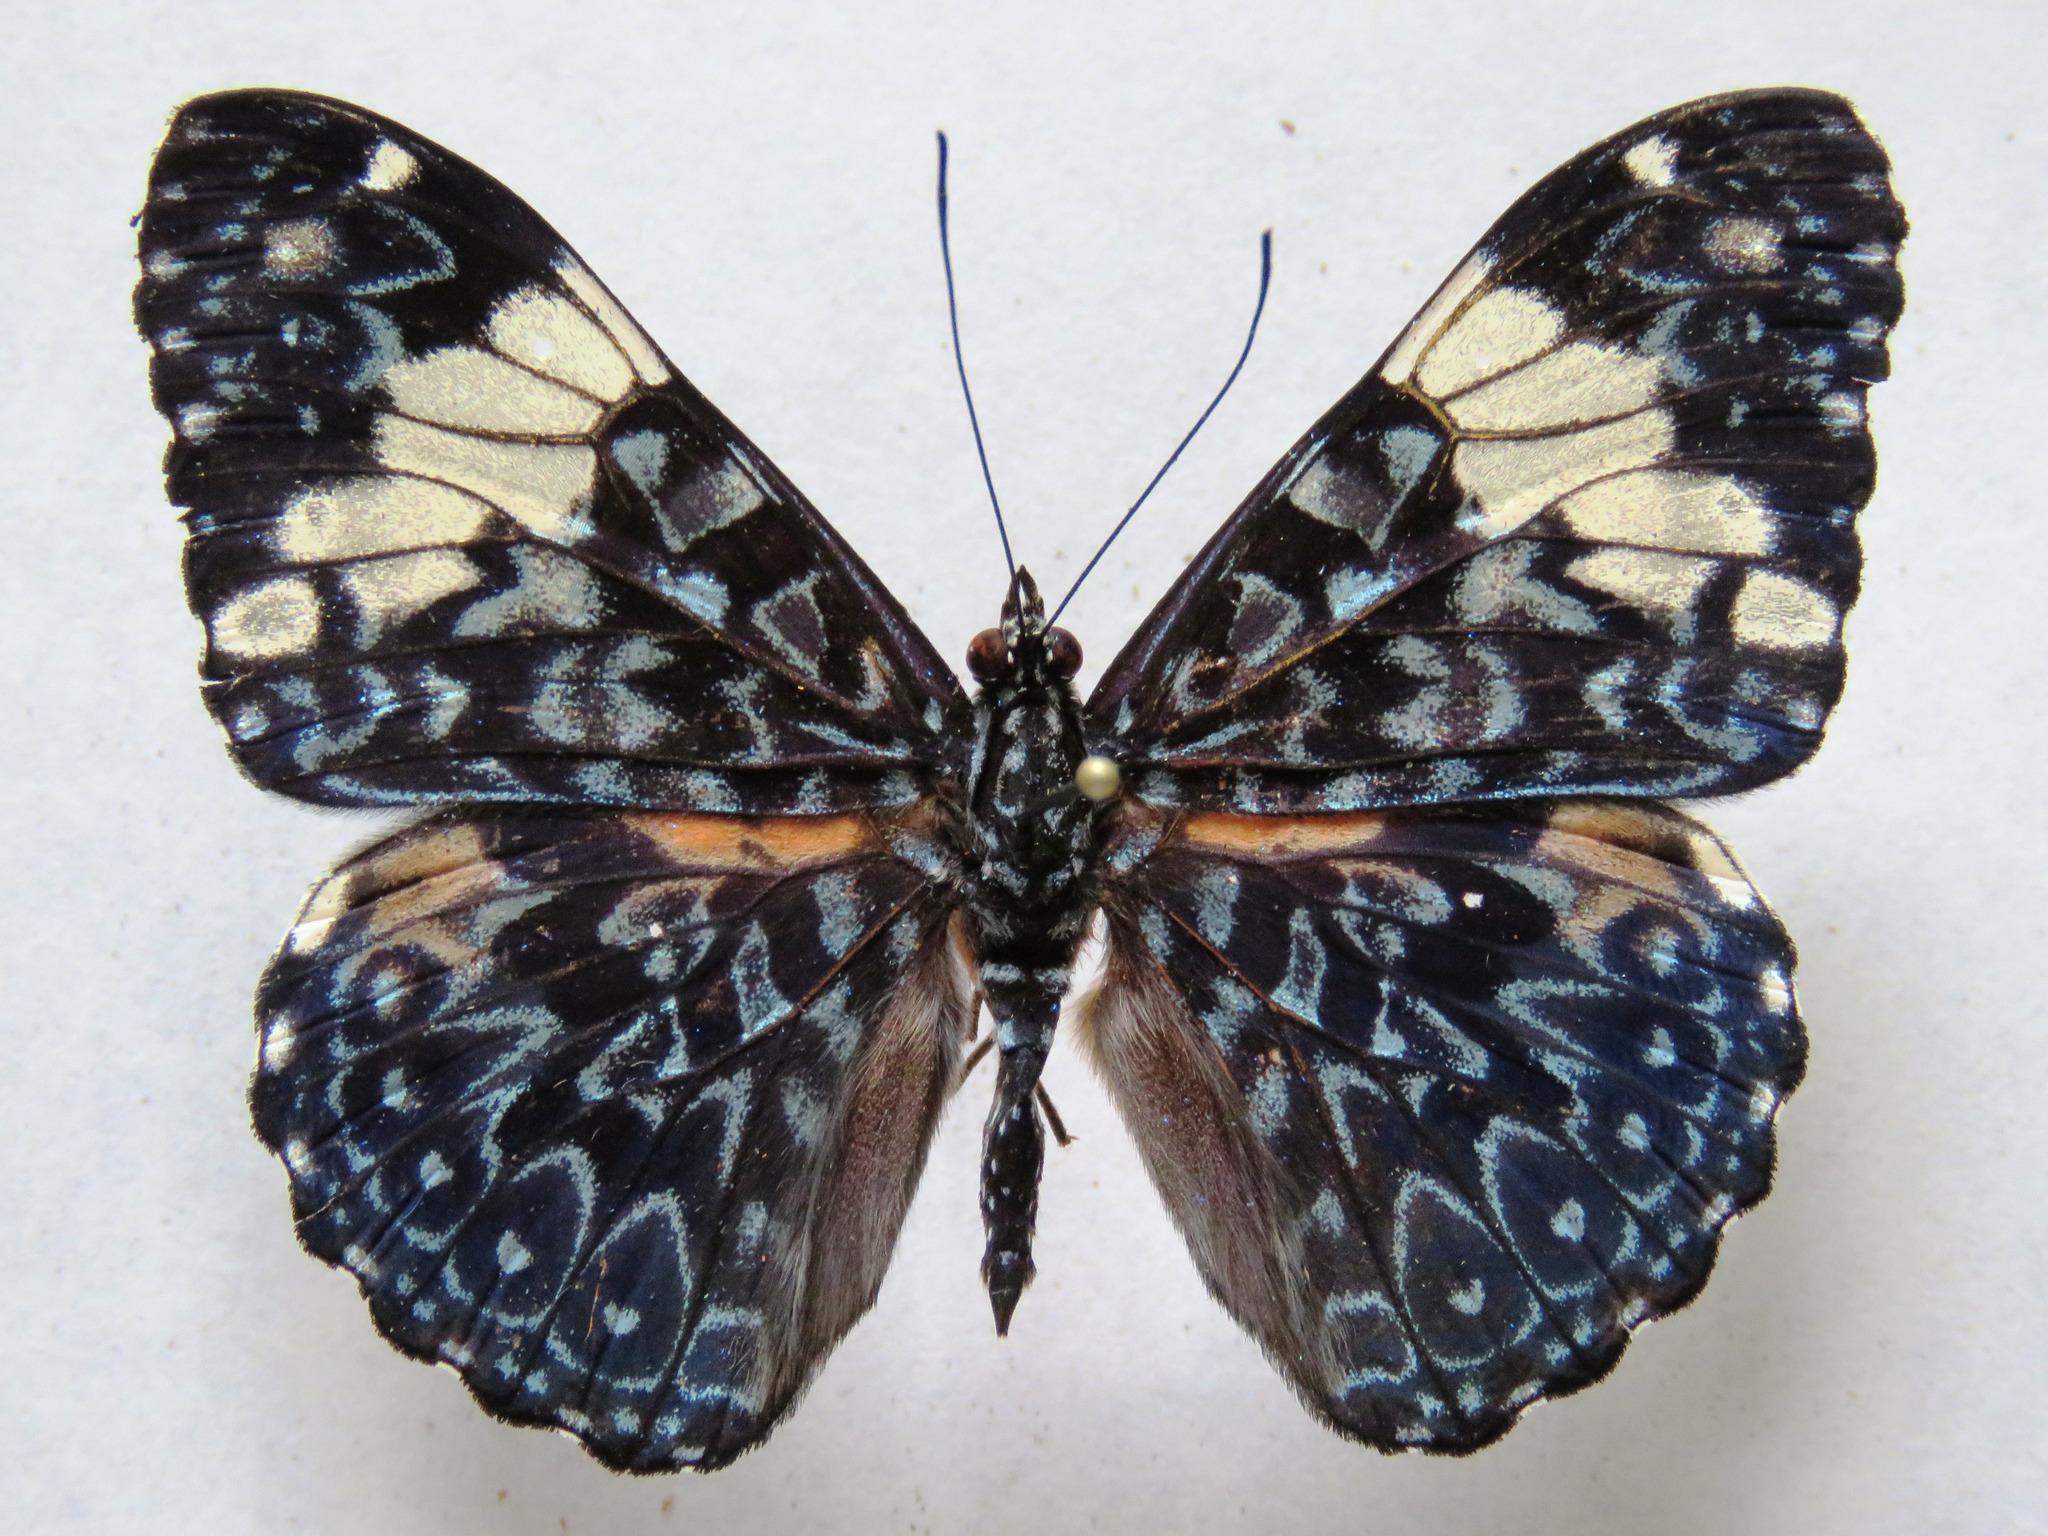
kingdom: Animalia
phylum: Arthropoda
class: Insecta
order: Lepidoptera
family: Nymphalidae
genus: Hamadryas
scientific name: Hamadryas amphinome
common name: Red cracker
